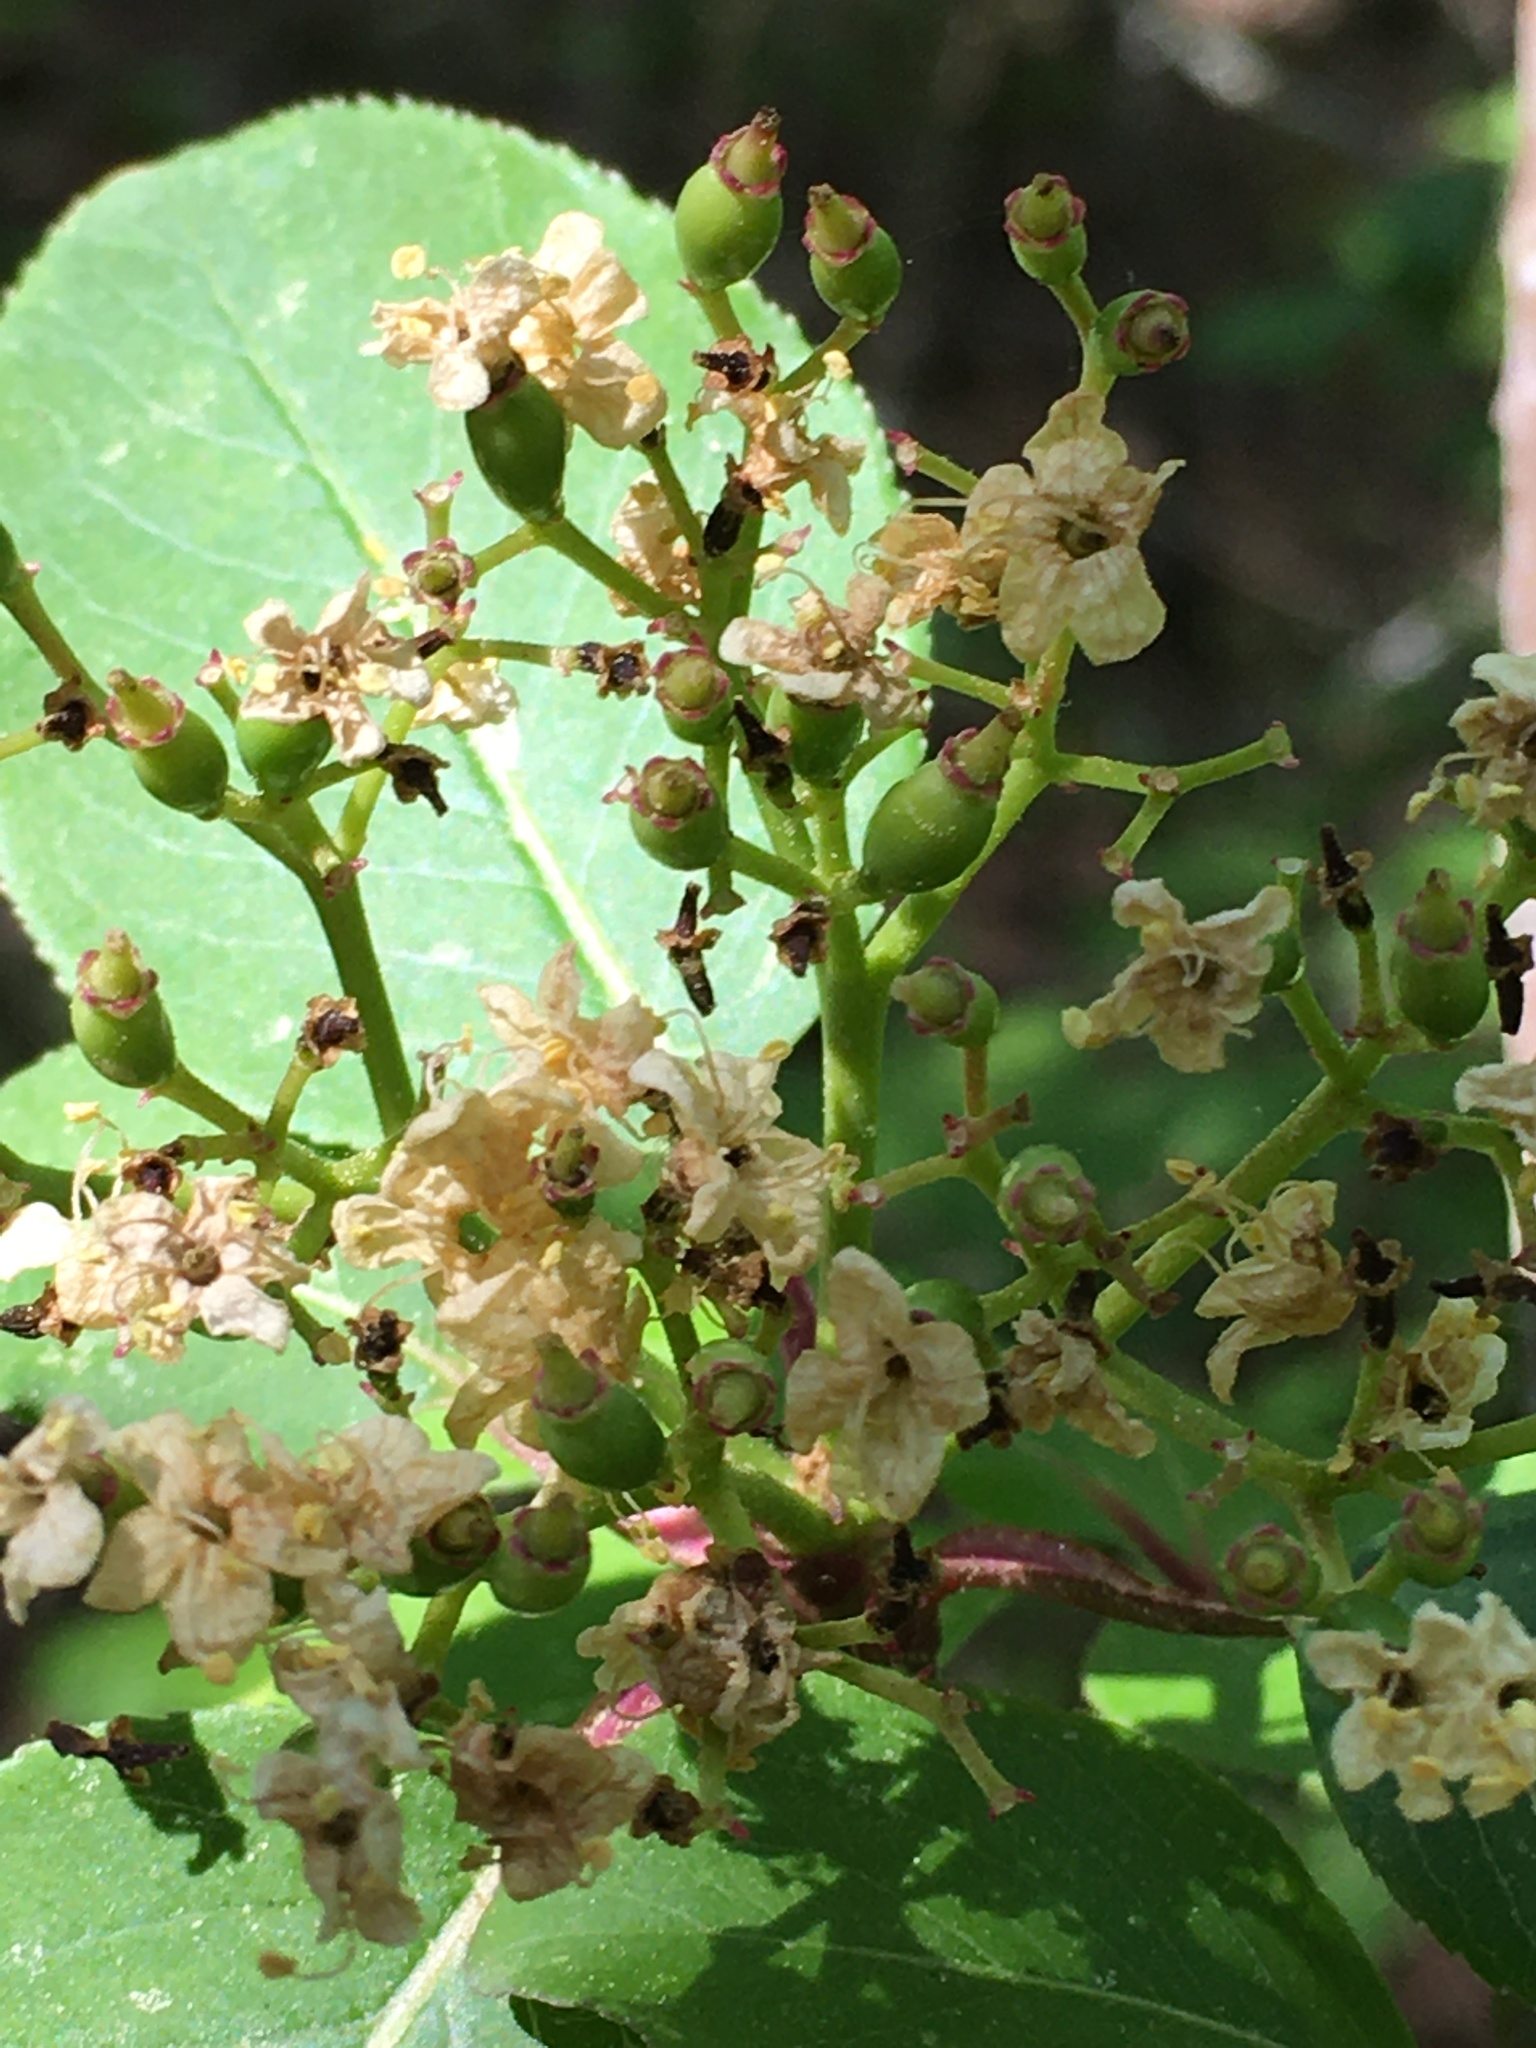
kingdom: Plantae
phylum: Tracheophyta
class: Magnoliopsida
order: Dipsacales
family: Viburnaceae
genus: Viburnum
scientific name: Viburnum prunifolium
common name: Black haw
